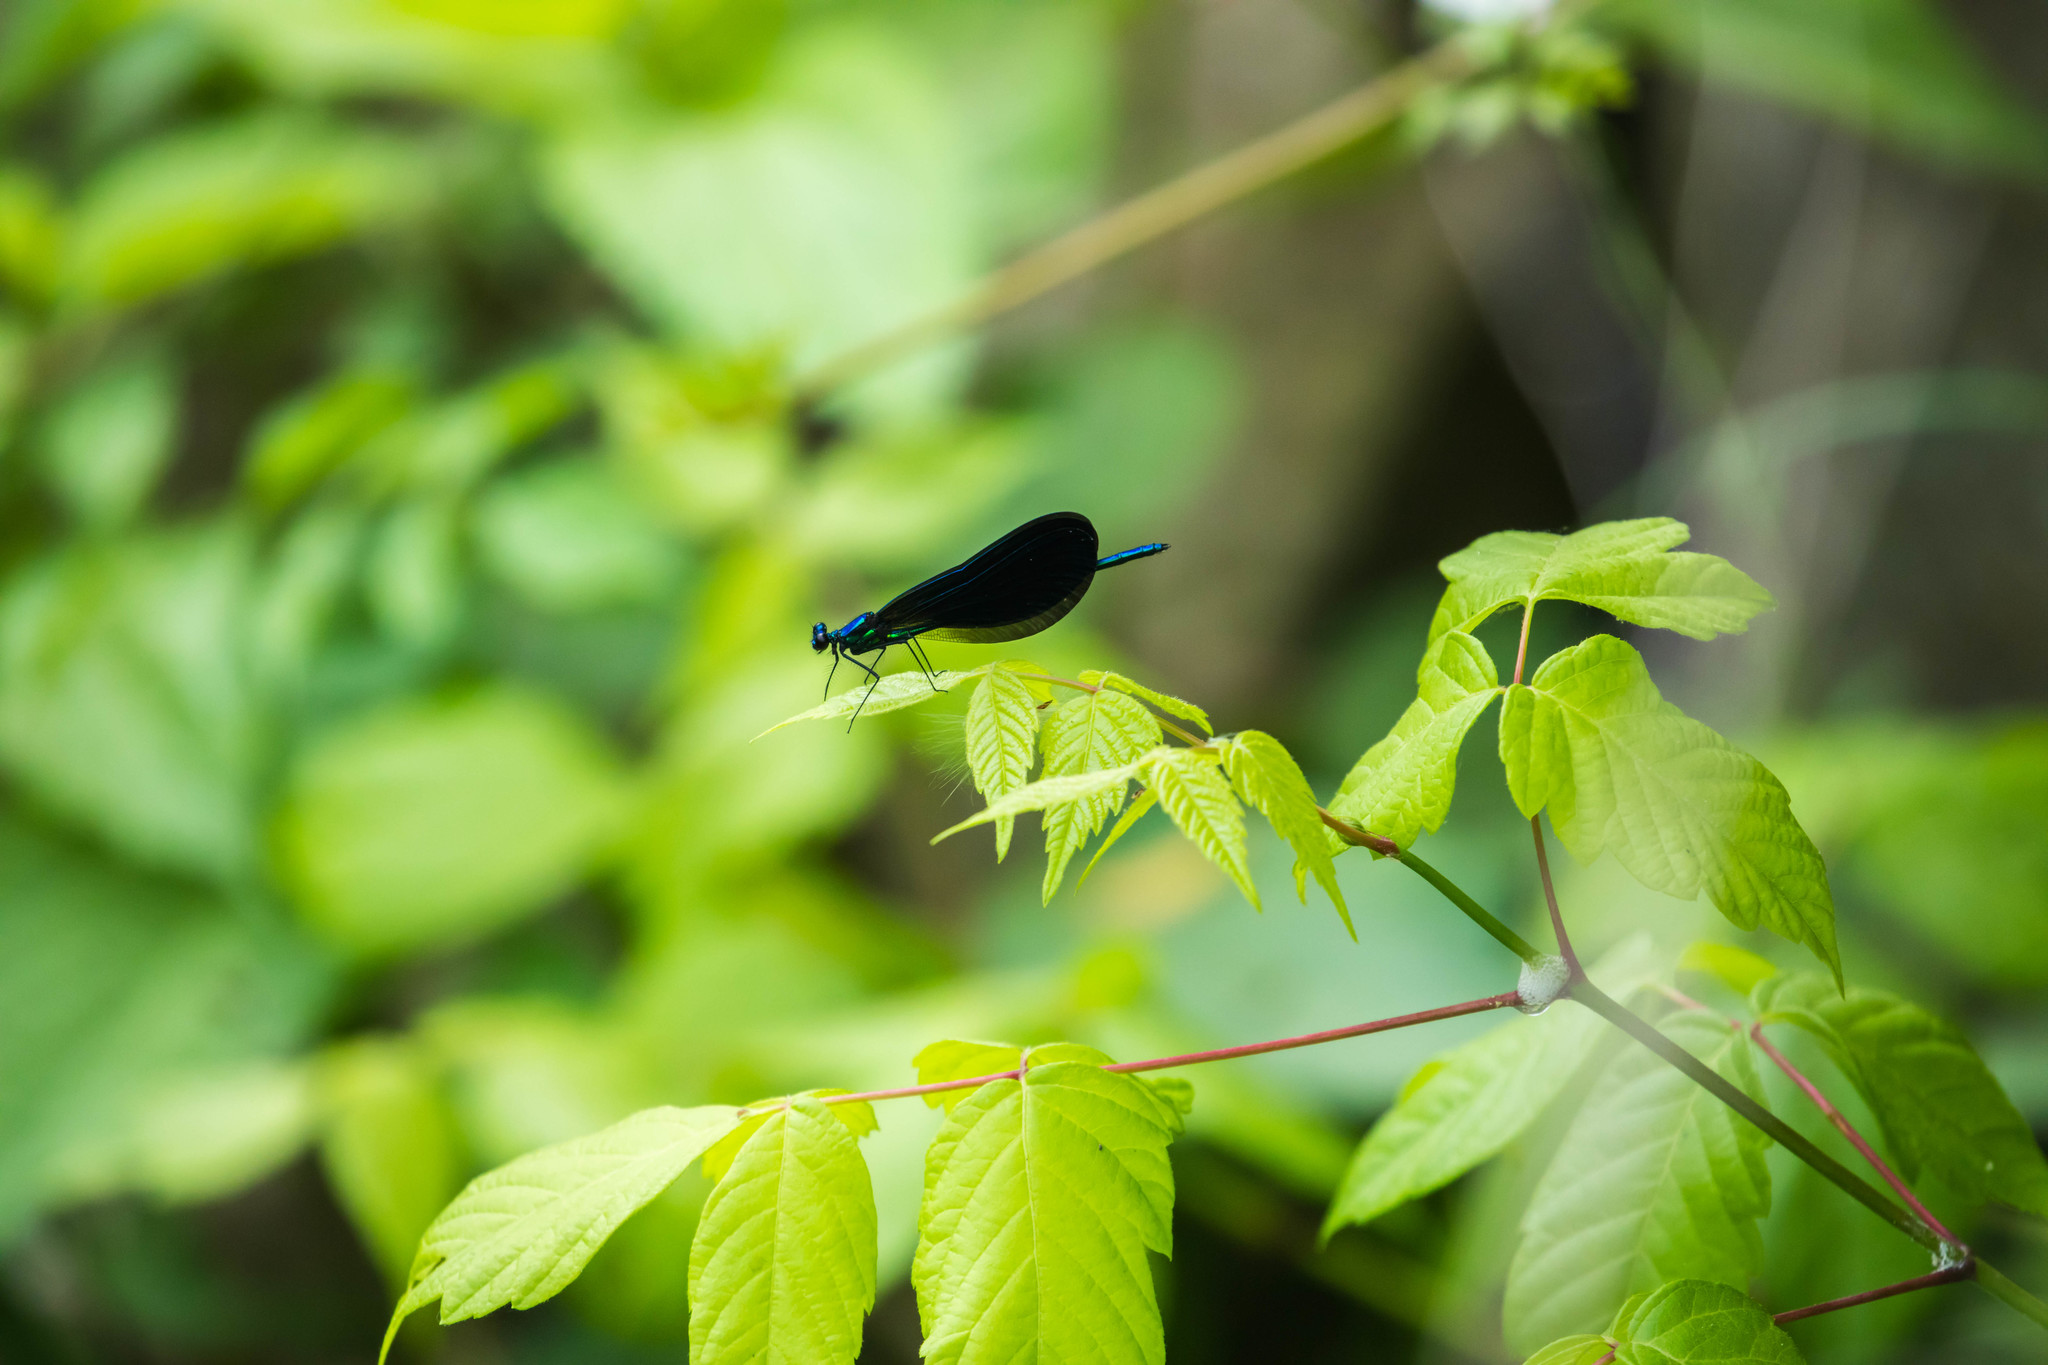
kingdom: Animalia
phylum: Arthropoda
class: Insecta
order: Odonata
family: Calopterygidae
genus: Calopteryx
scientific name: Calopteryx maculata
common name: Ebony jewelwing
